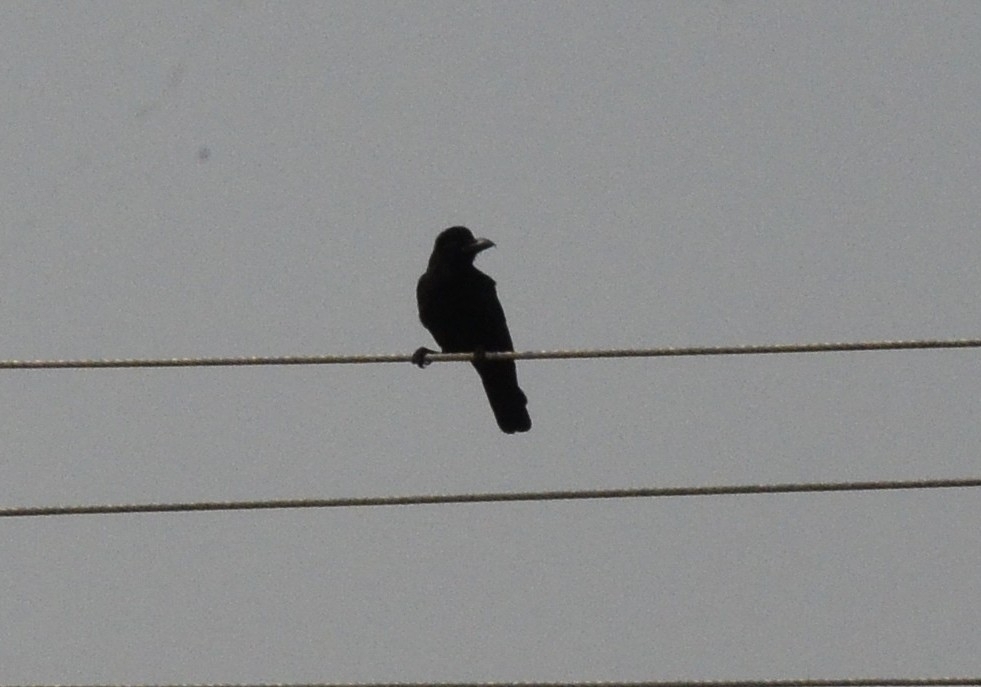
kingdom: Animalia
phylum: Chordata
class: Aves
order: Passeriformes
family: Corvidae
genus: Corvus
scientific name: Corvus macrorhynchos
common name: Large-billed crow
